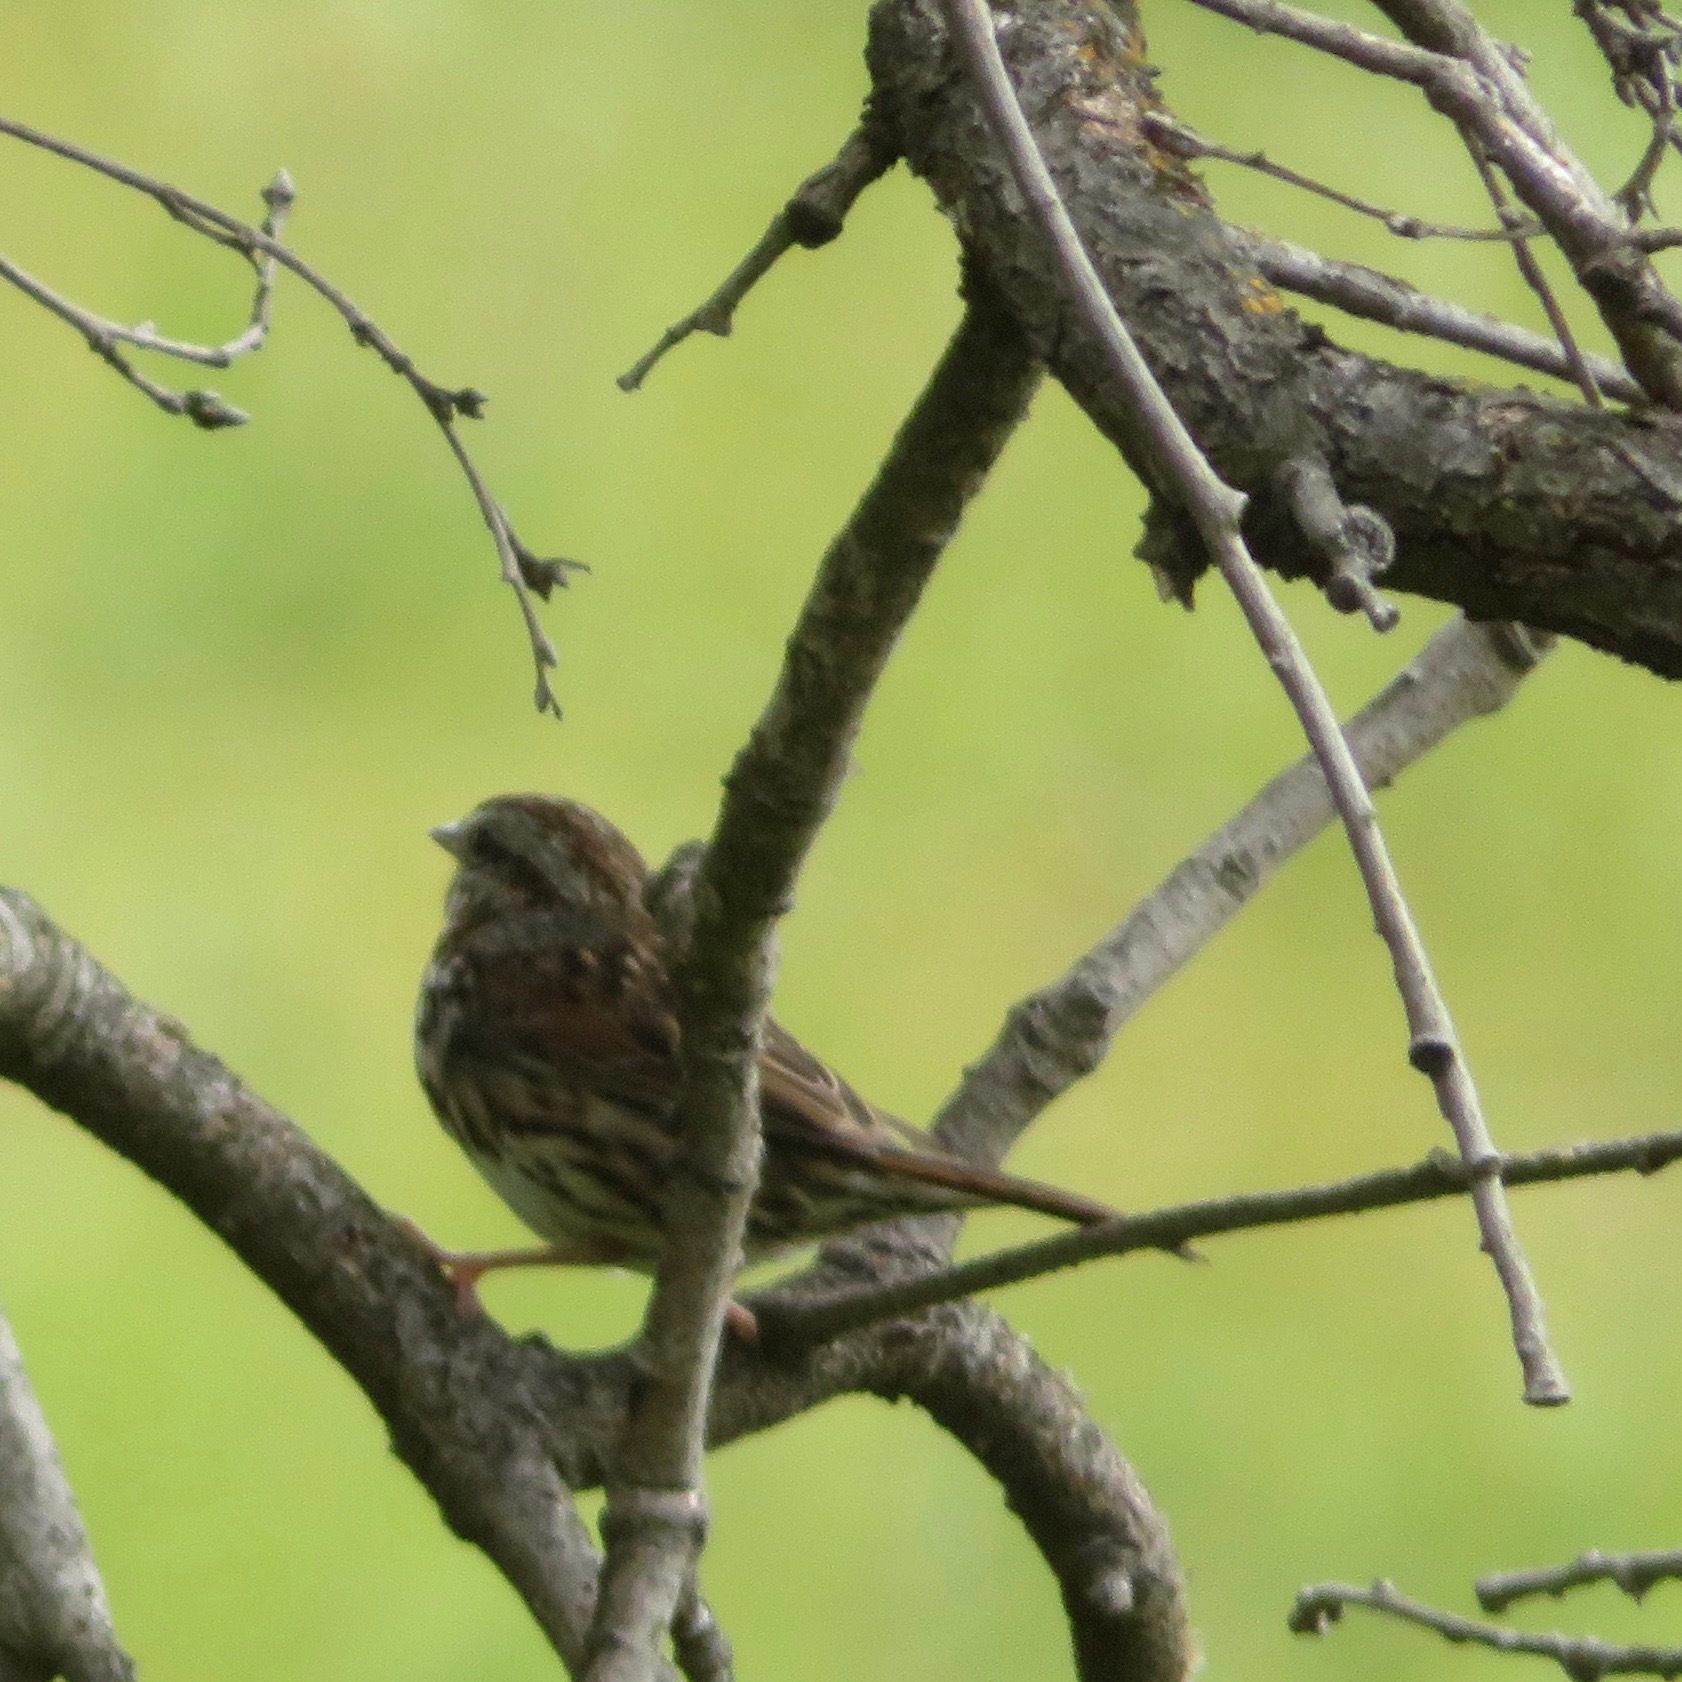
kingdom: Animalia
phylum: Chordata
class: Aves
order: Passeriformes
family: Passerellidae
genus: Melospiza
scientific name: Melospiza melodia
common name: Song sparrow
